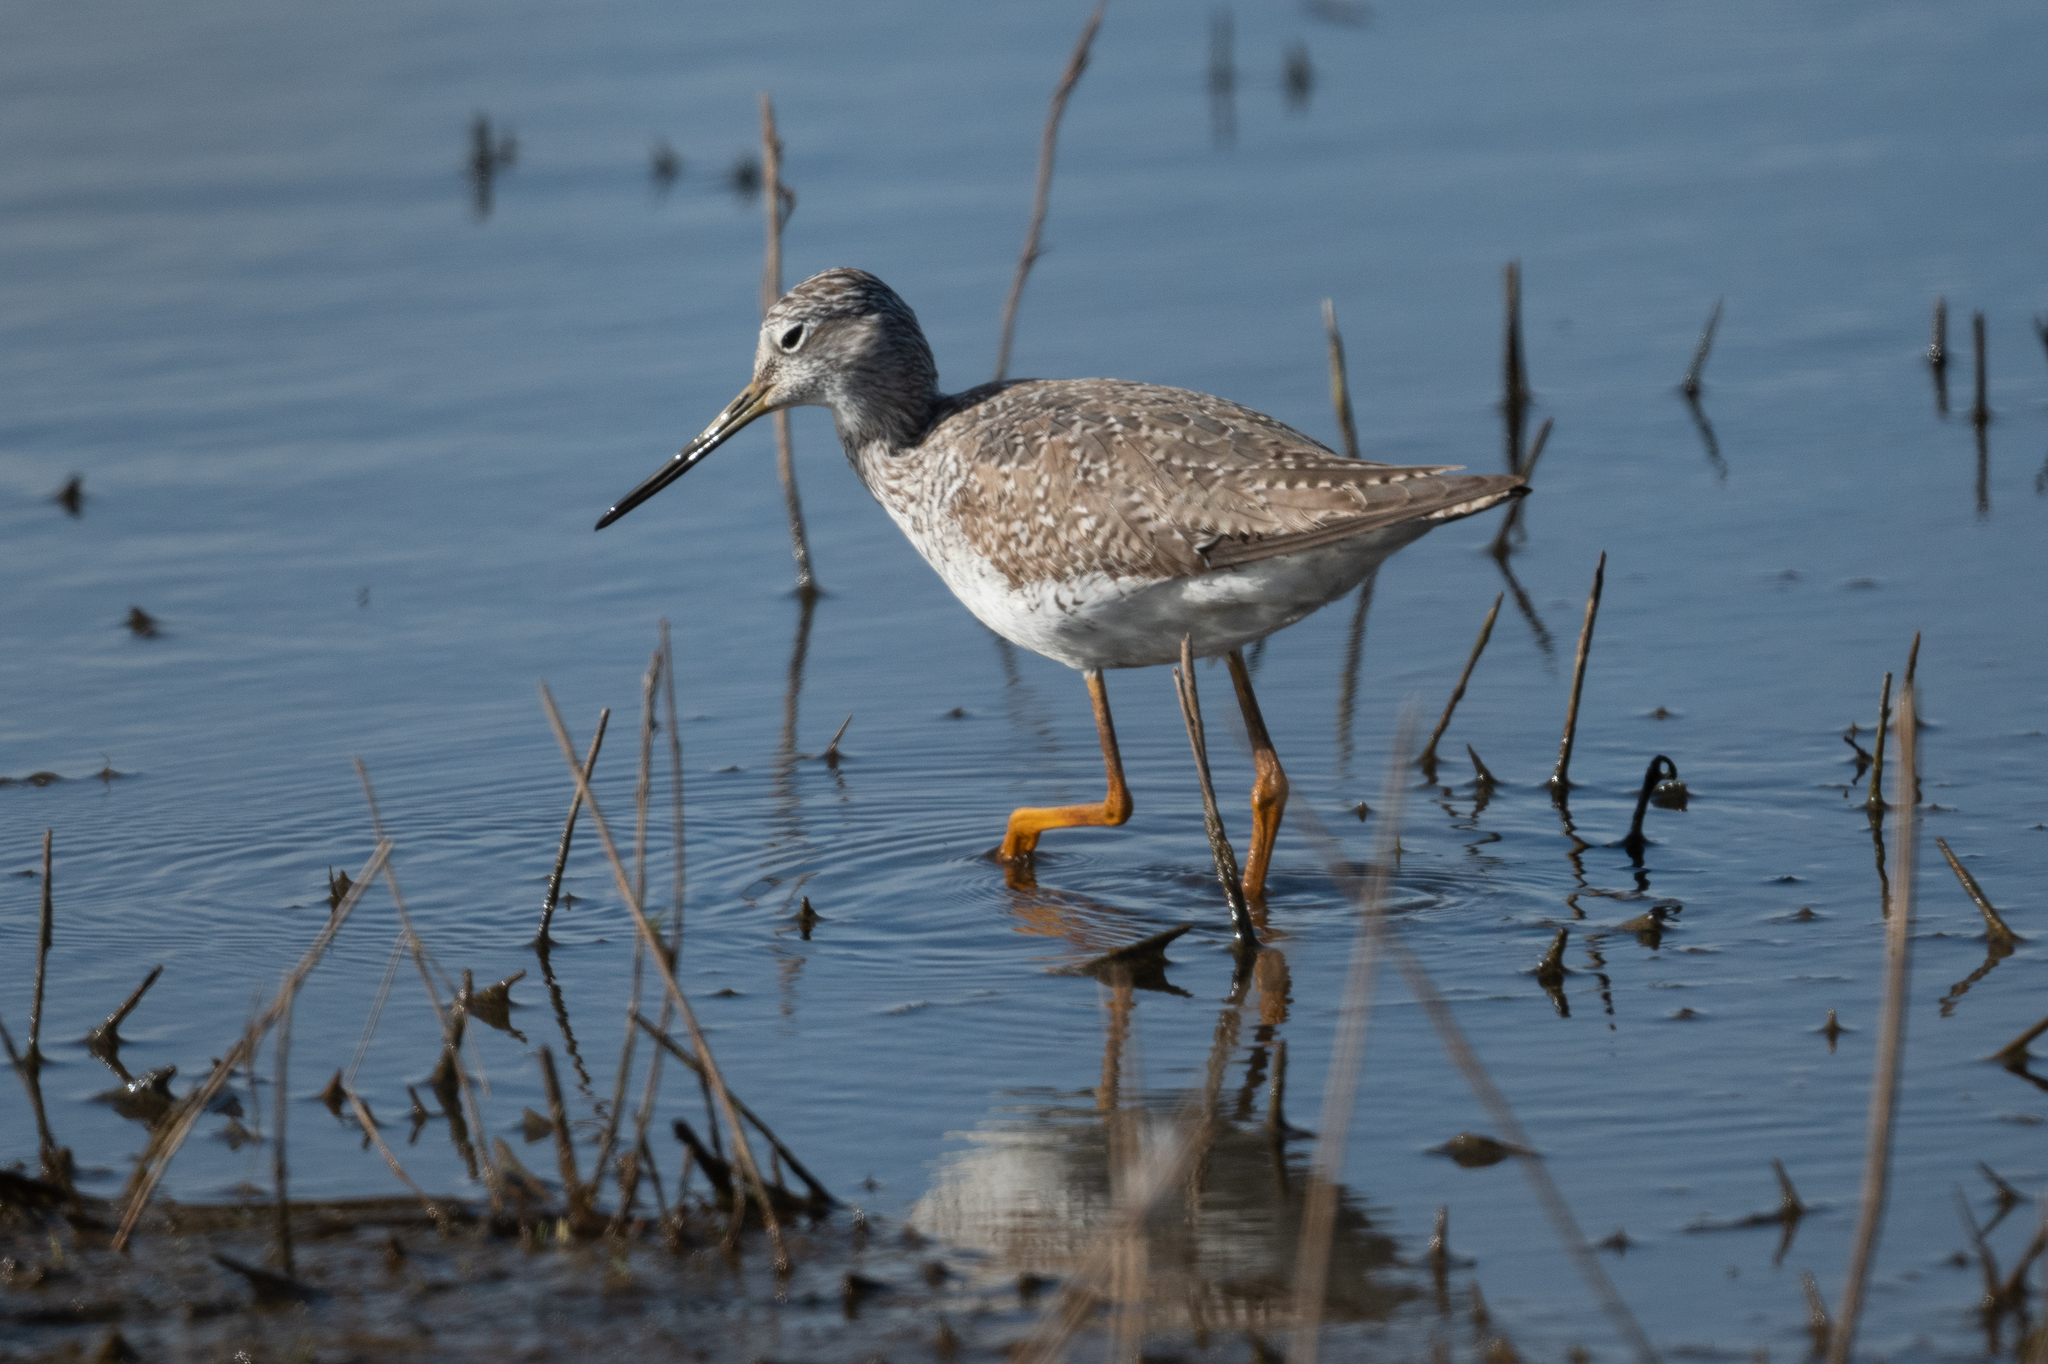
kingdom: Animalia
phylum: Chordata
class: Aves
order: Charadriiformes
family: Scolopacidae
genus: Tringa
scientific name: Tringa melanoleuca
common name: Greater yellowlegs
